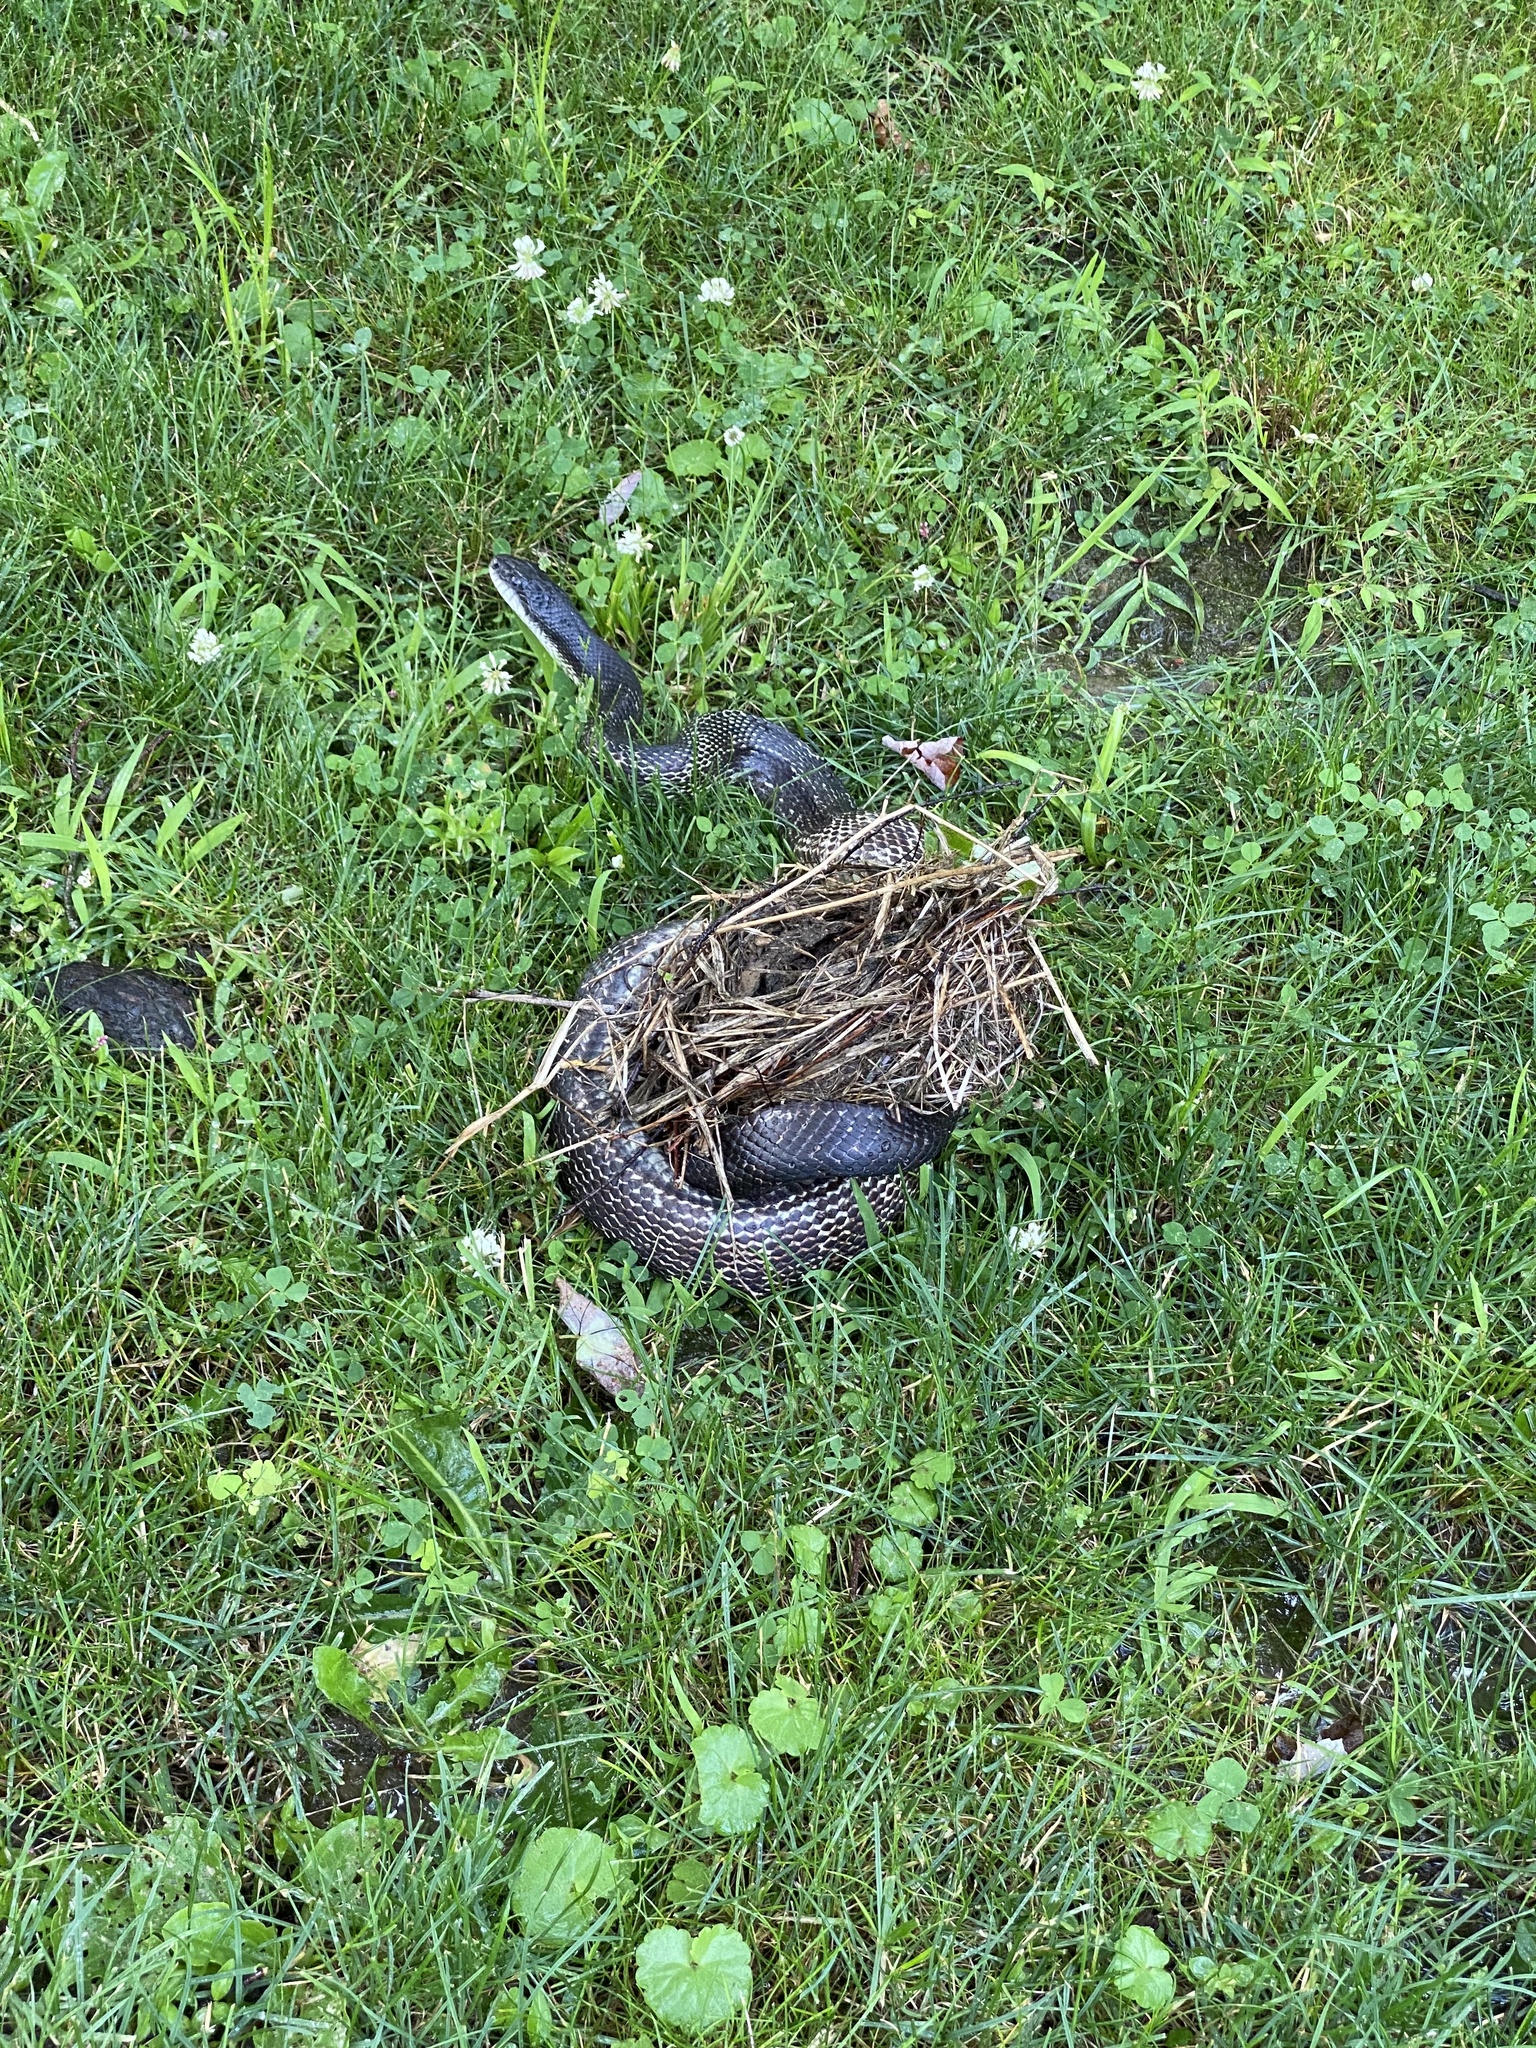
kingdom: Animalia
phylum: Chordata
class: Squamata
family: Colubridae
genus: Pantherophis
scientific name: Pantherophis spiloides
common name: Gray rat snake
